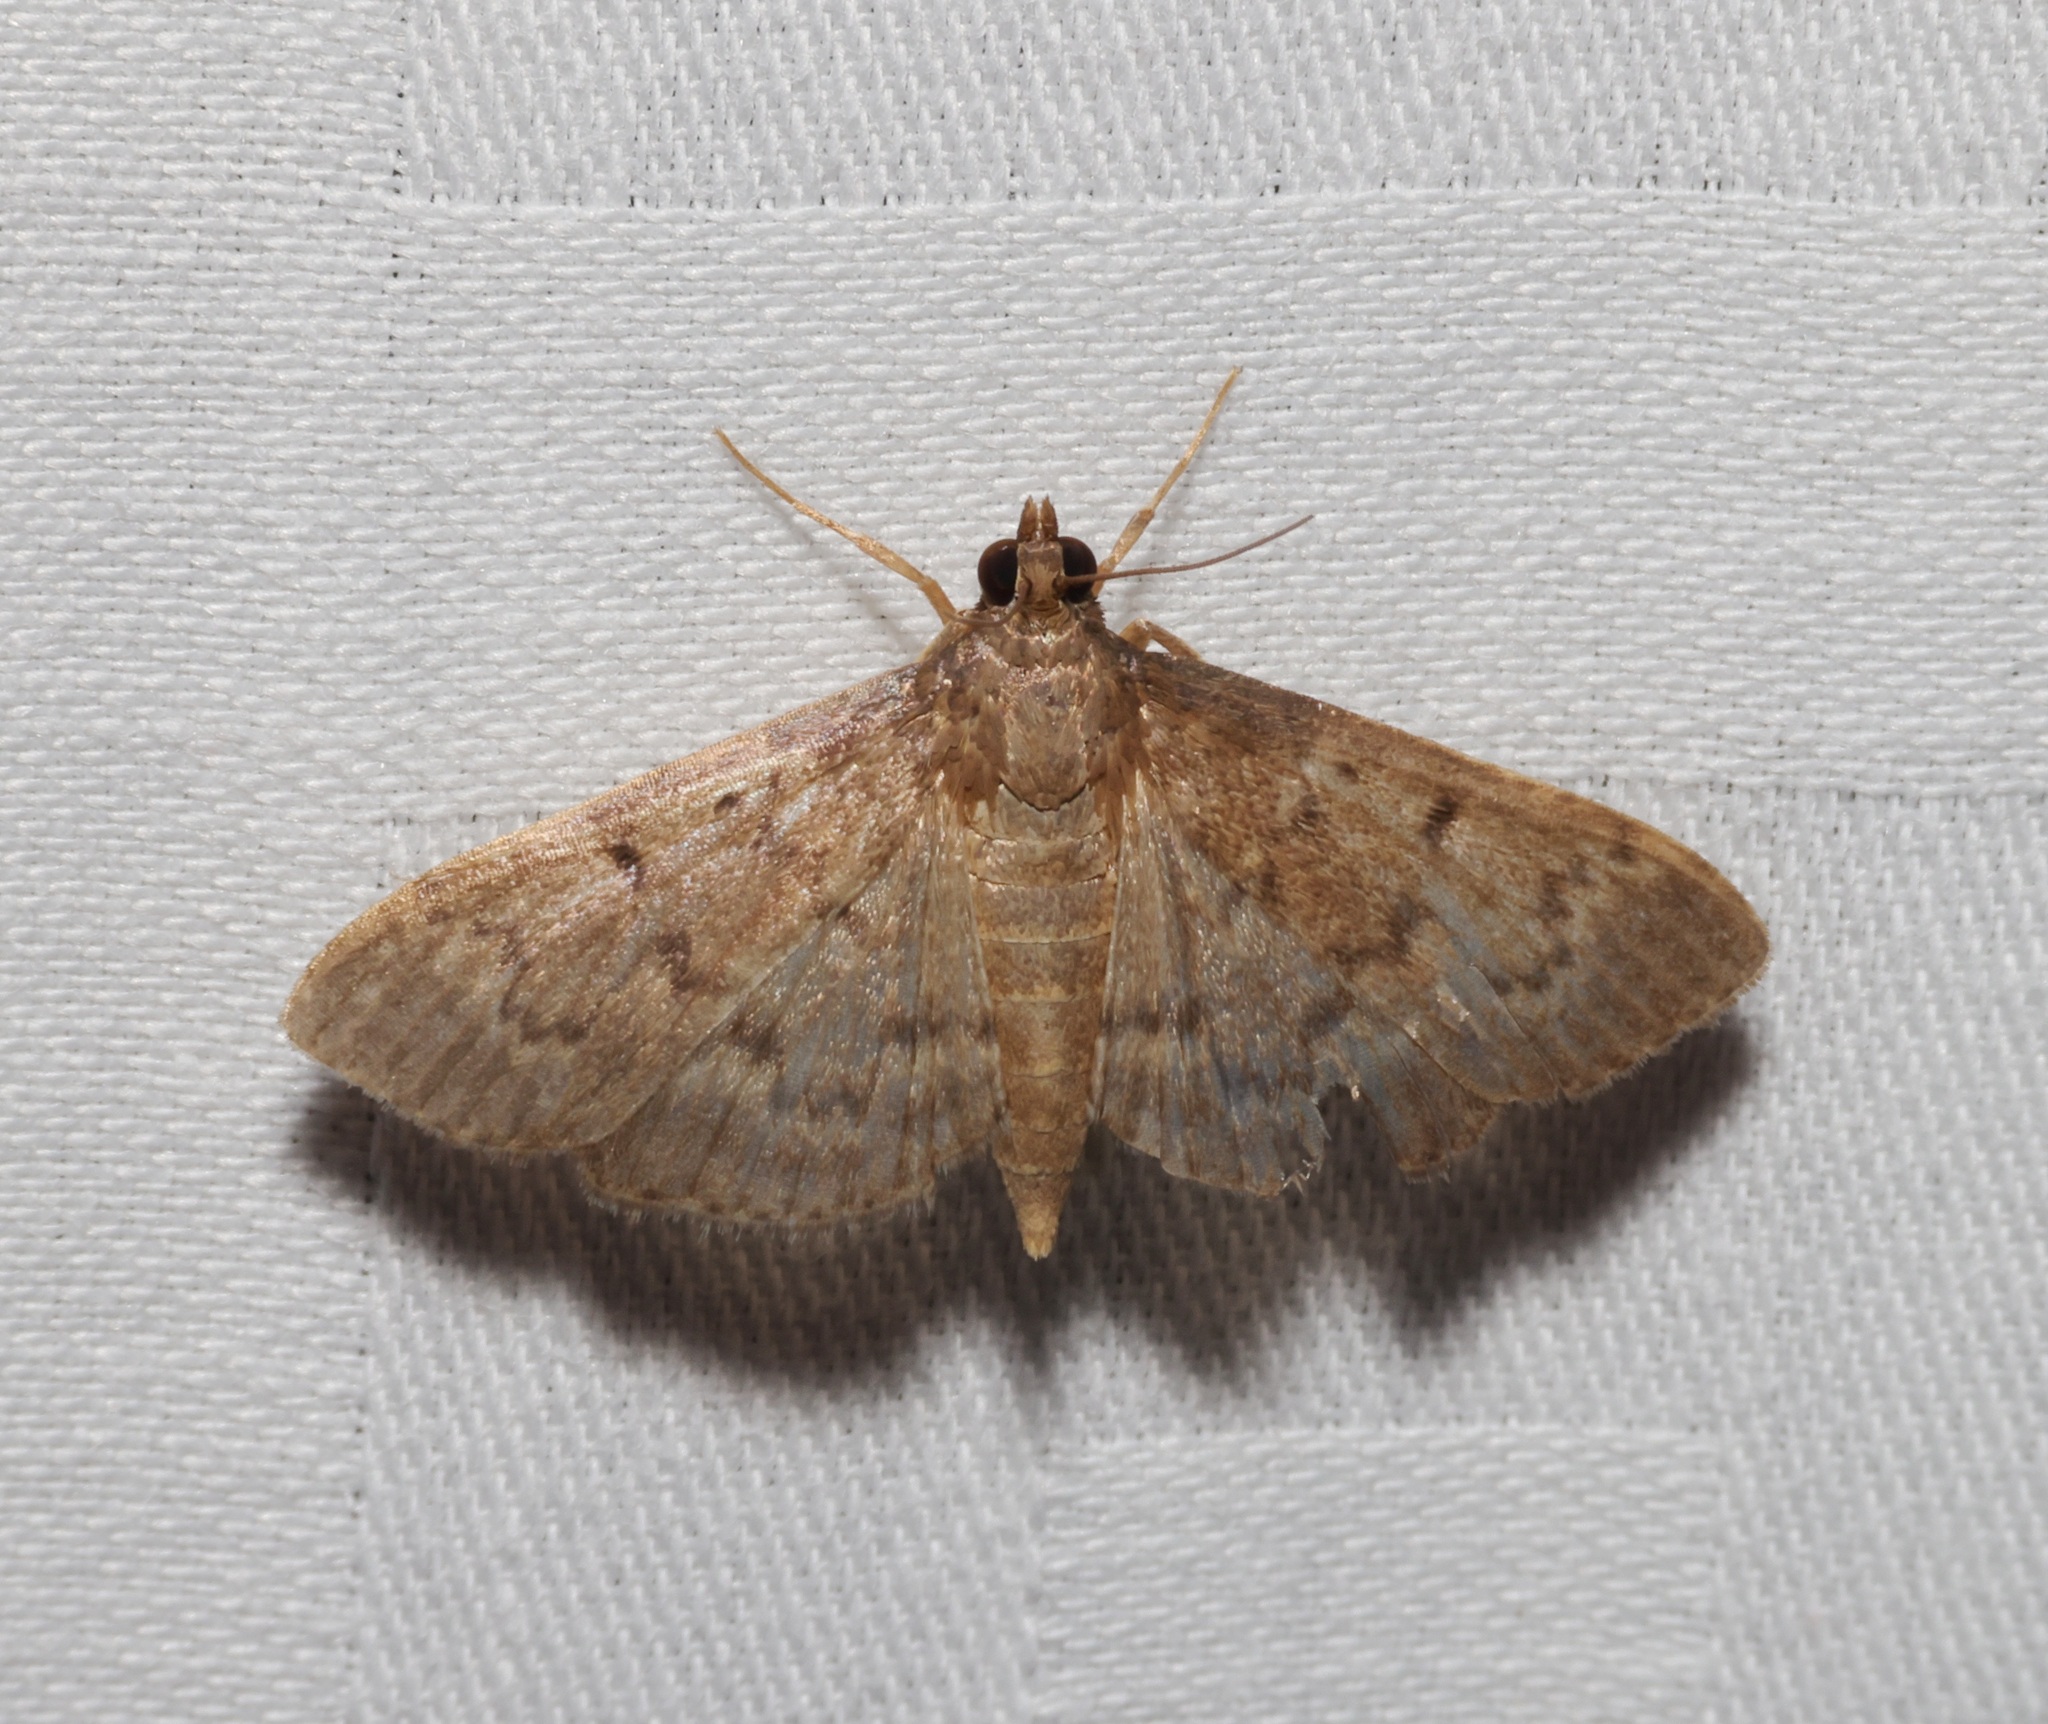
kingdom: Animalia
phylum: Arthropoda
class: Insecta
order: Lepidoptera
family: Crambidae
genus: Herpetogramma
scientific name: Herpetogramma licarsisalis
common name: Grass webworm
